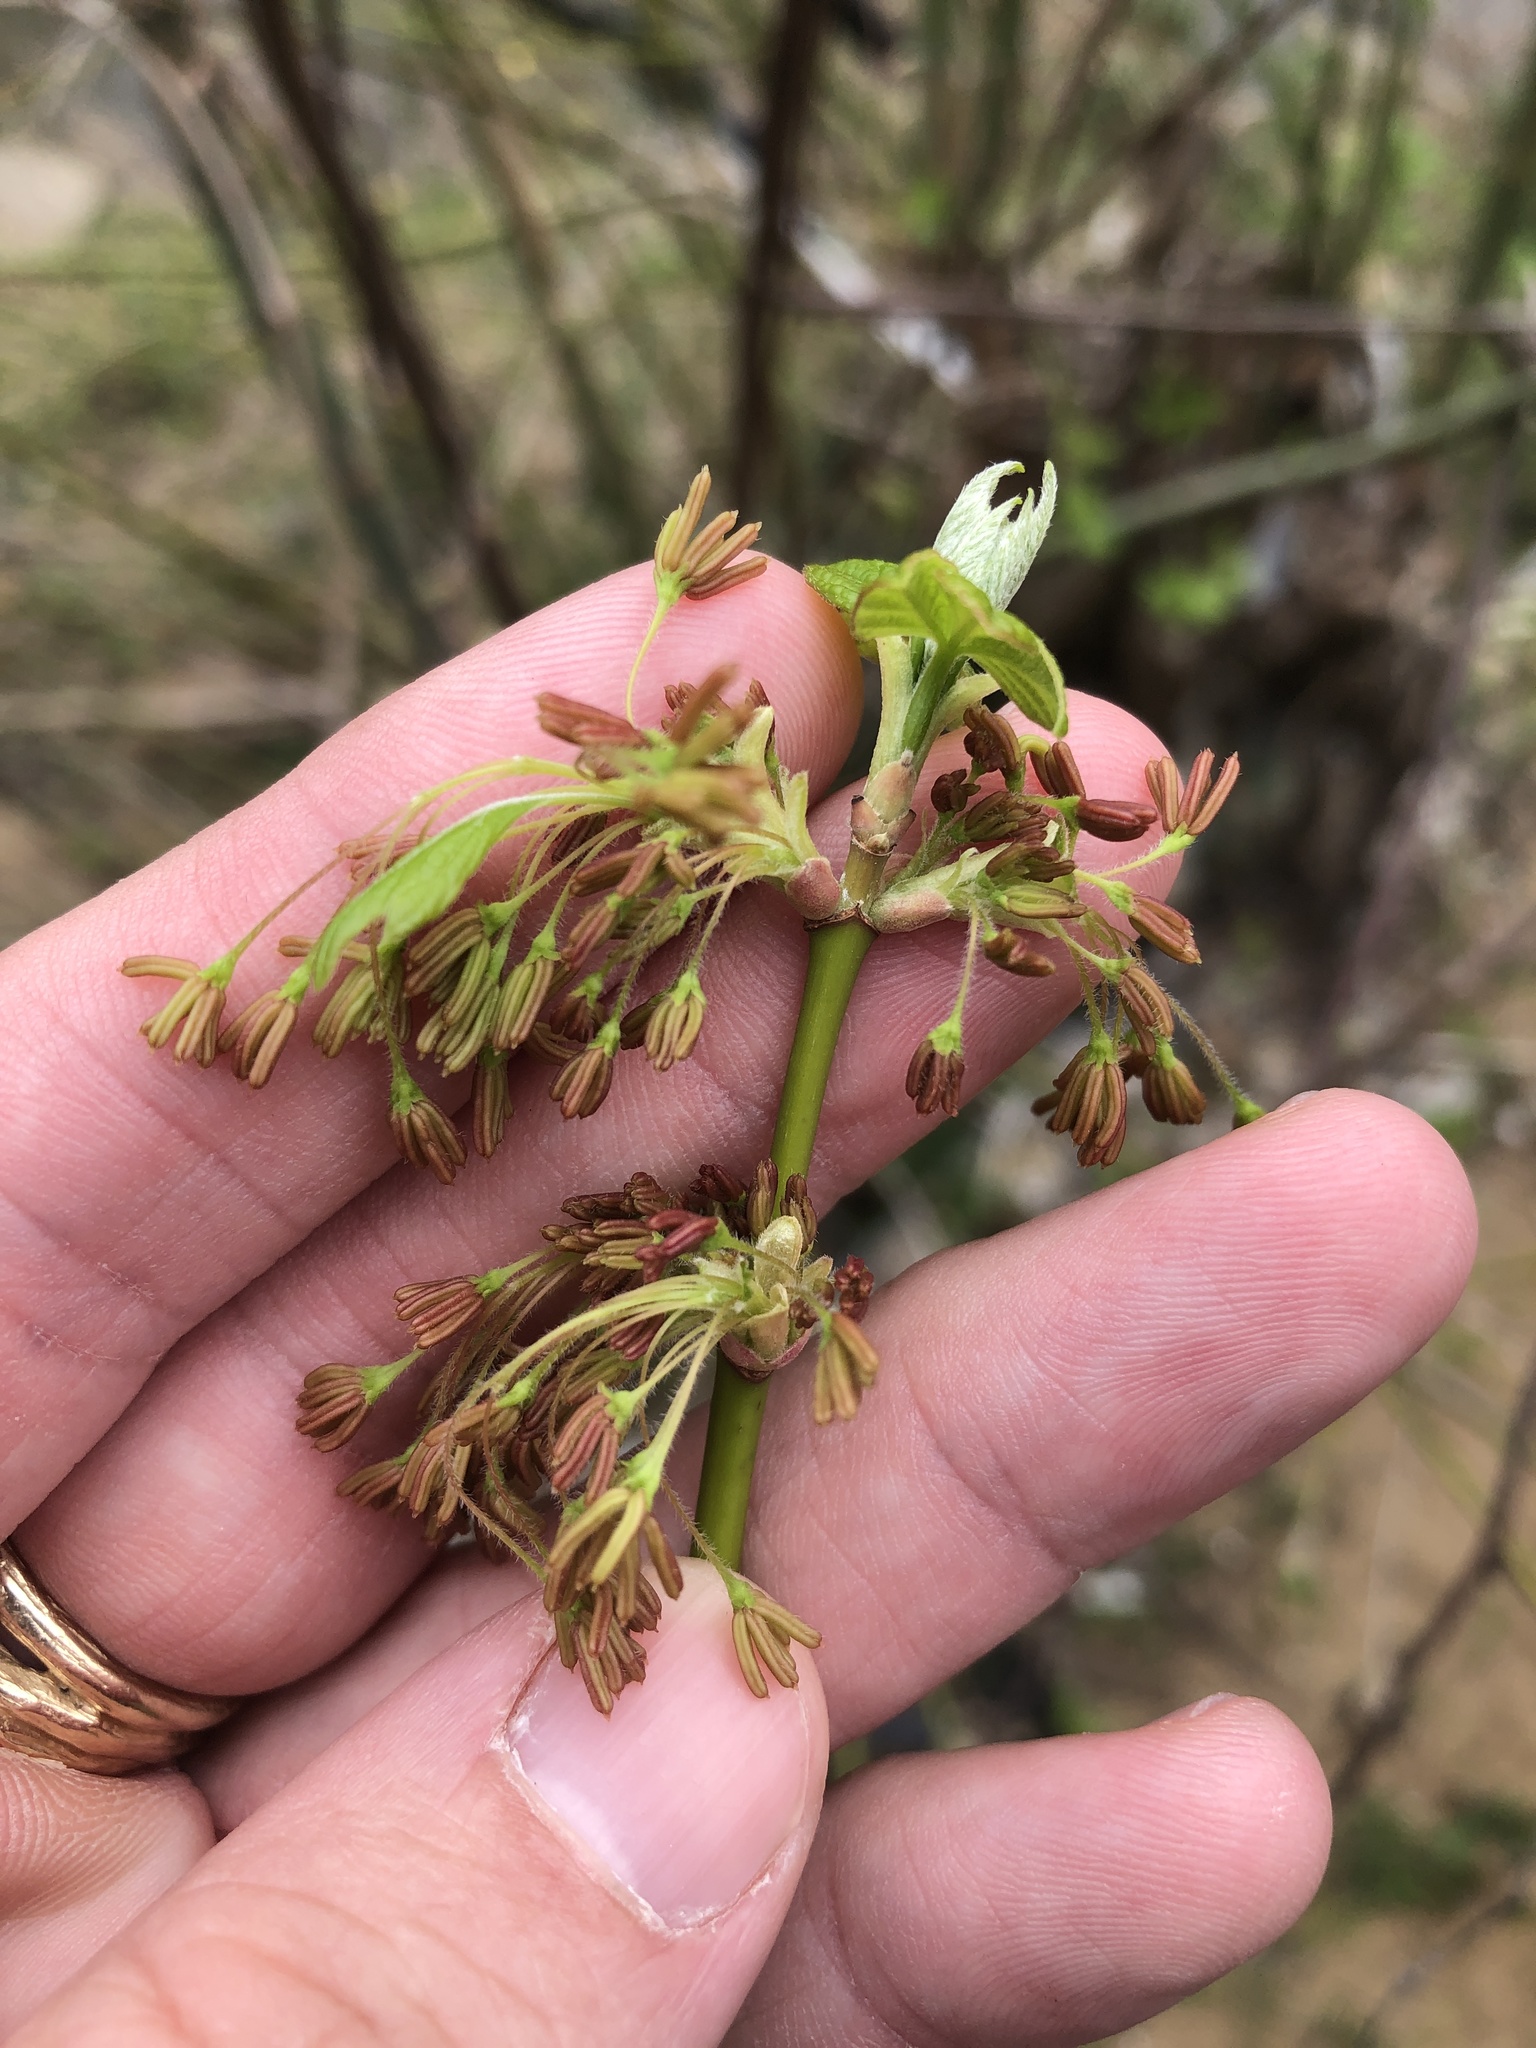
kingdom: Plantae
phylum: Tracheophyta
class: Magnoliopsida
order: Sapindales
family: Sapindaceae
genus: Acer
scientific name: Acer negundo
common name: Ashleaf maple
